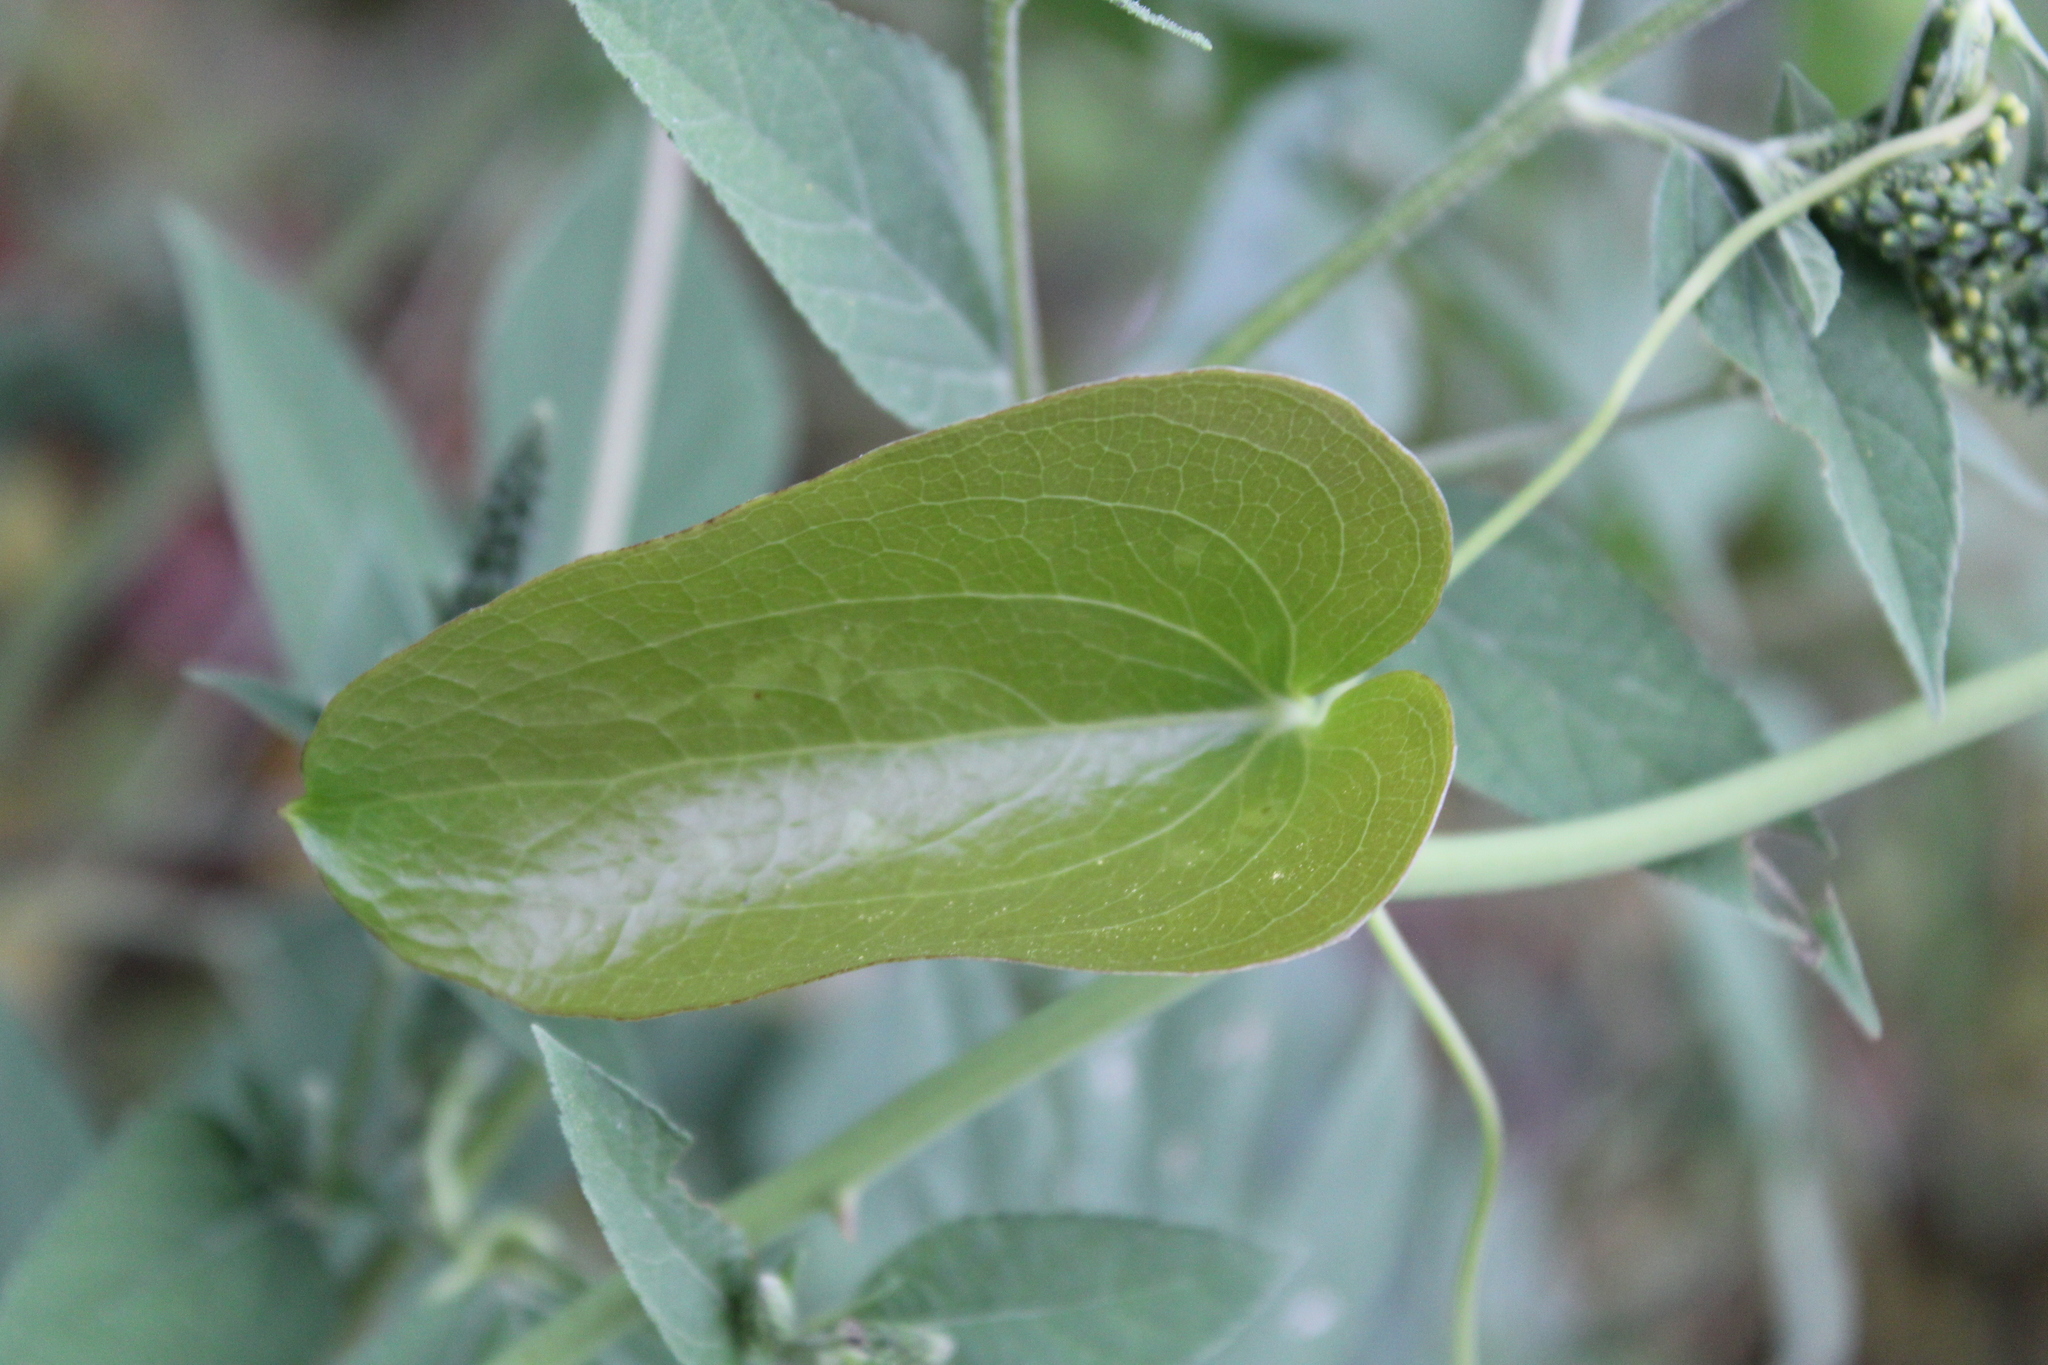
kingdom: Plantae
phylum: Tracheophyta
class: Liliopsida
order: Liliales
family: Smilacaceae
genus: Smilax
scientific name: Smilax bona-nox
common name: Catbrier
